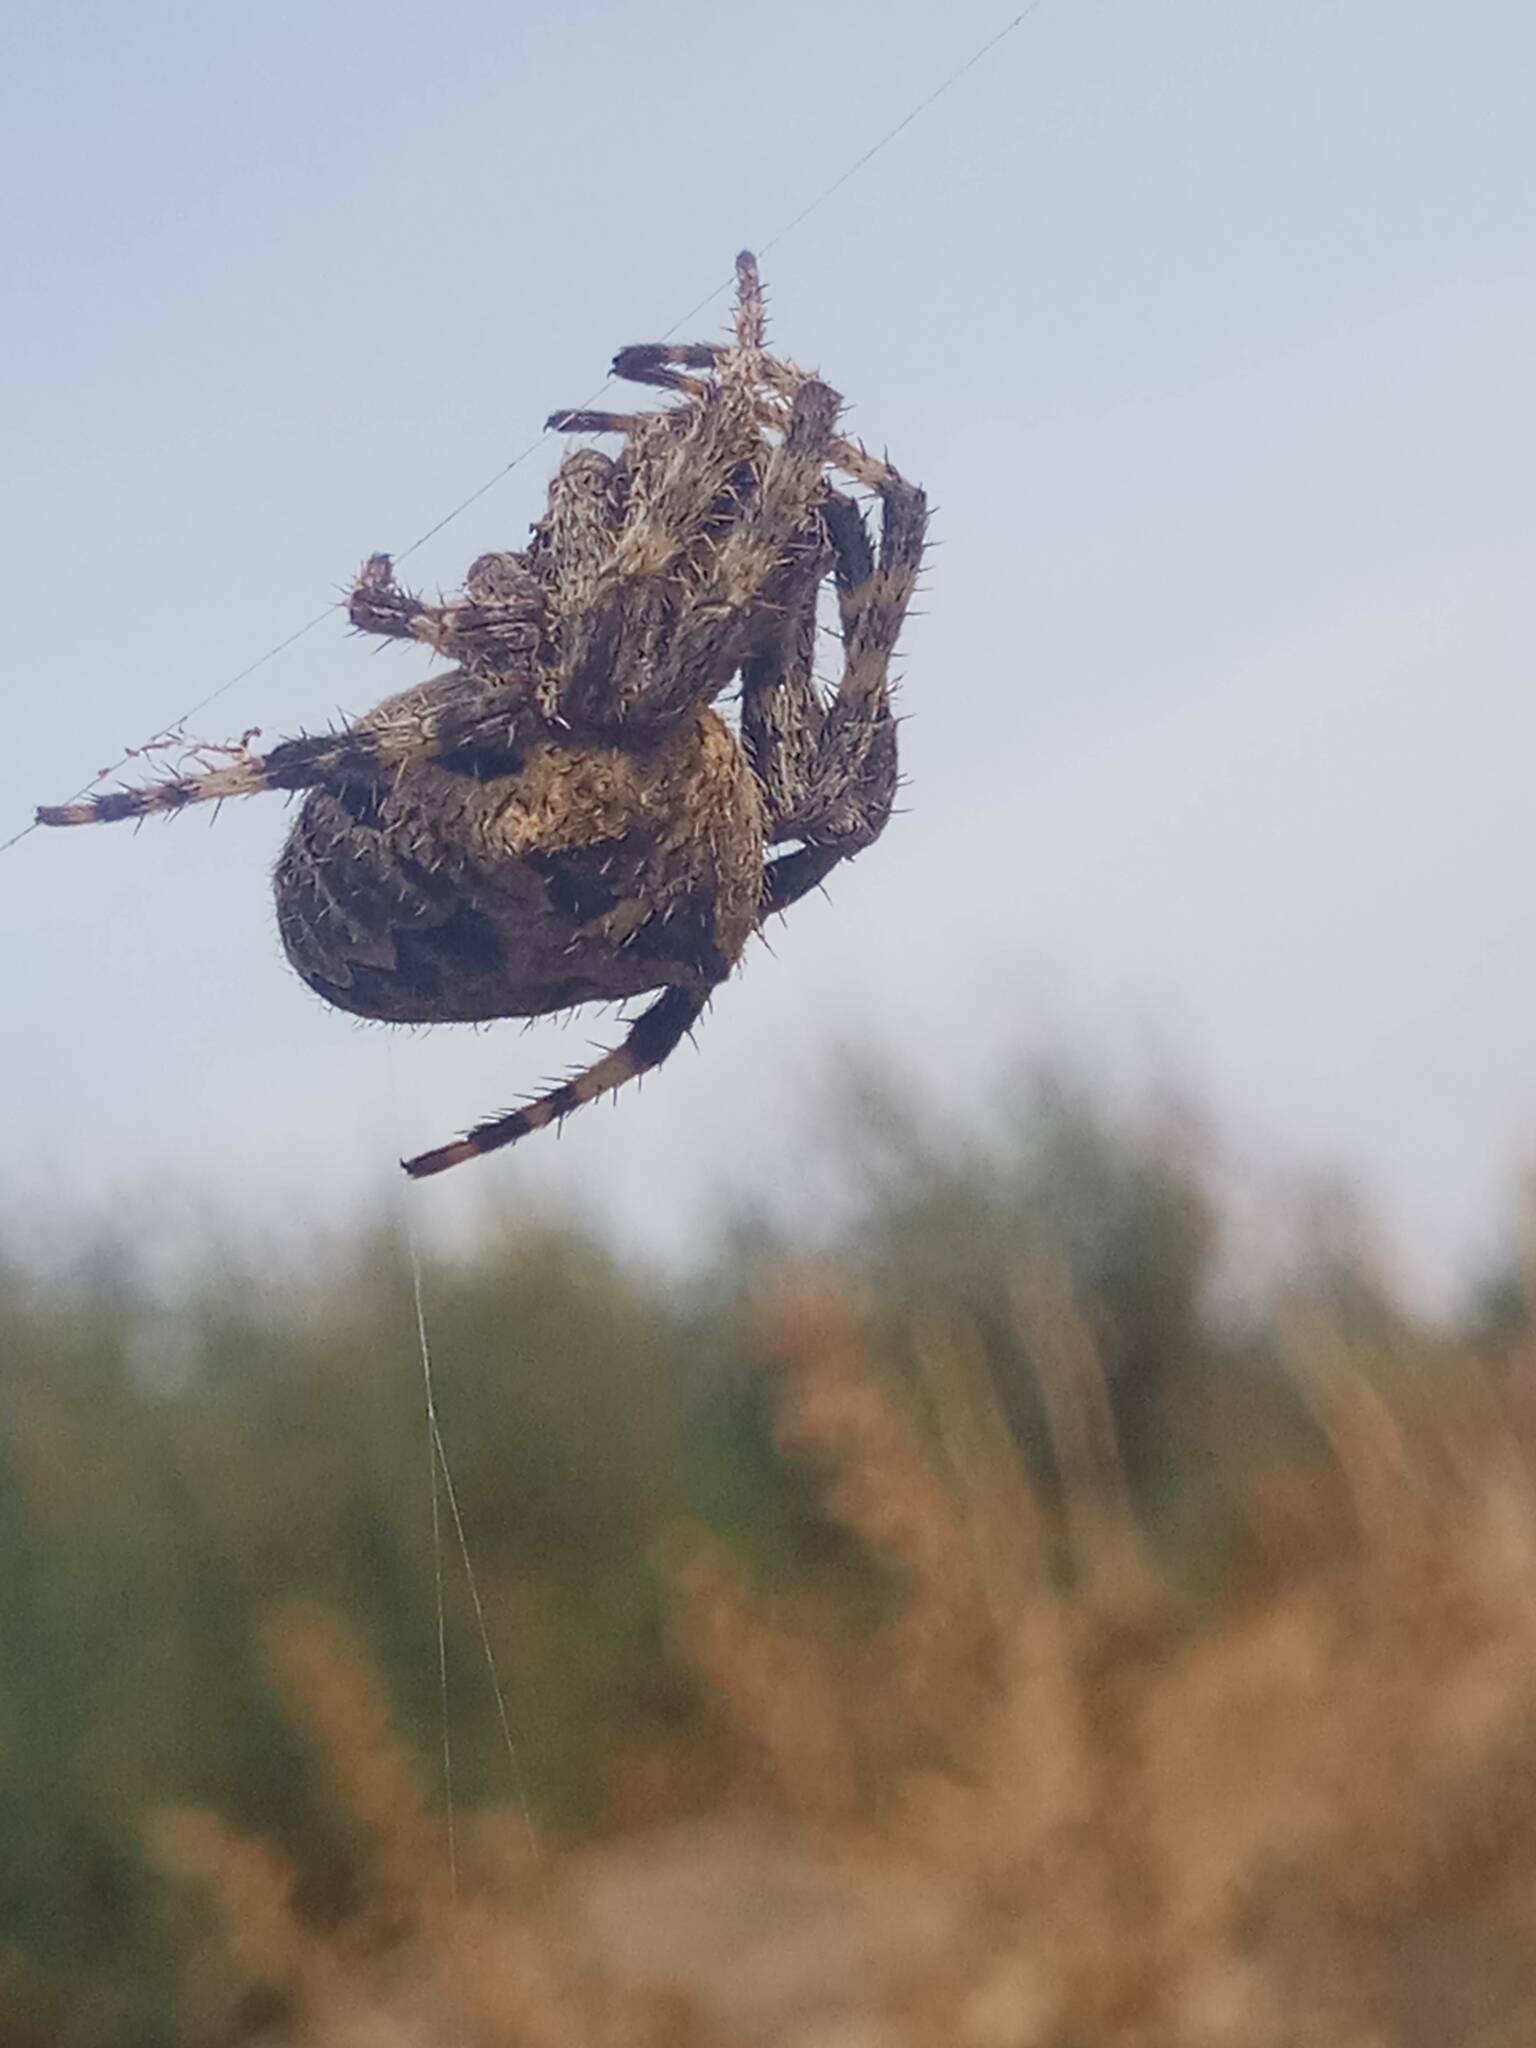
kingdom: Animalia
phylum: Arthropoda
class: Arachnida
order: Araneae
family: Araneidae
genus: Araneus
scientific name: Araneus angulatus
